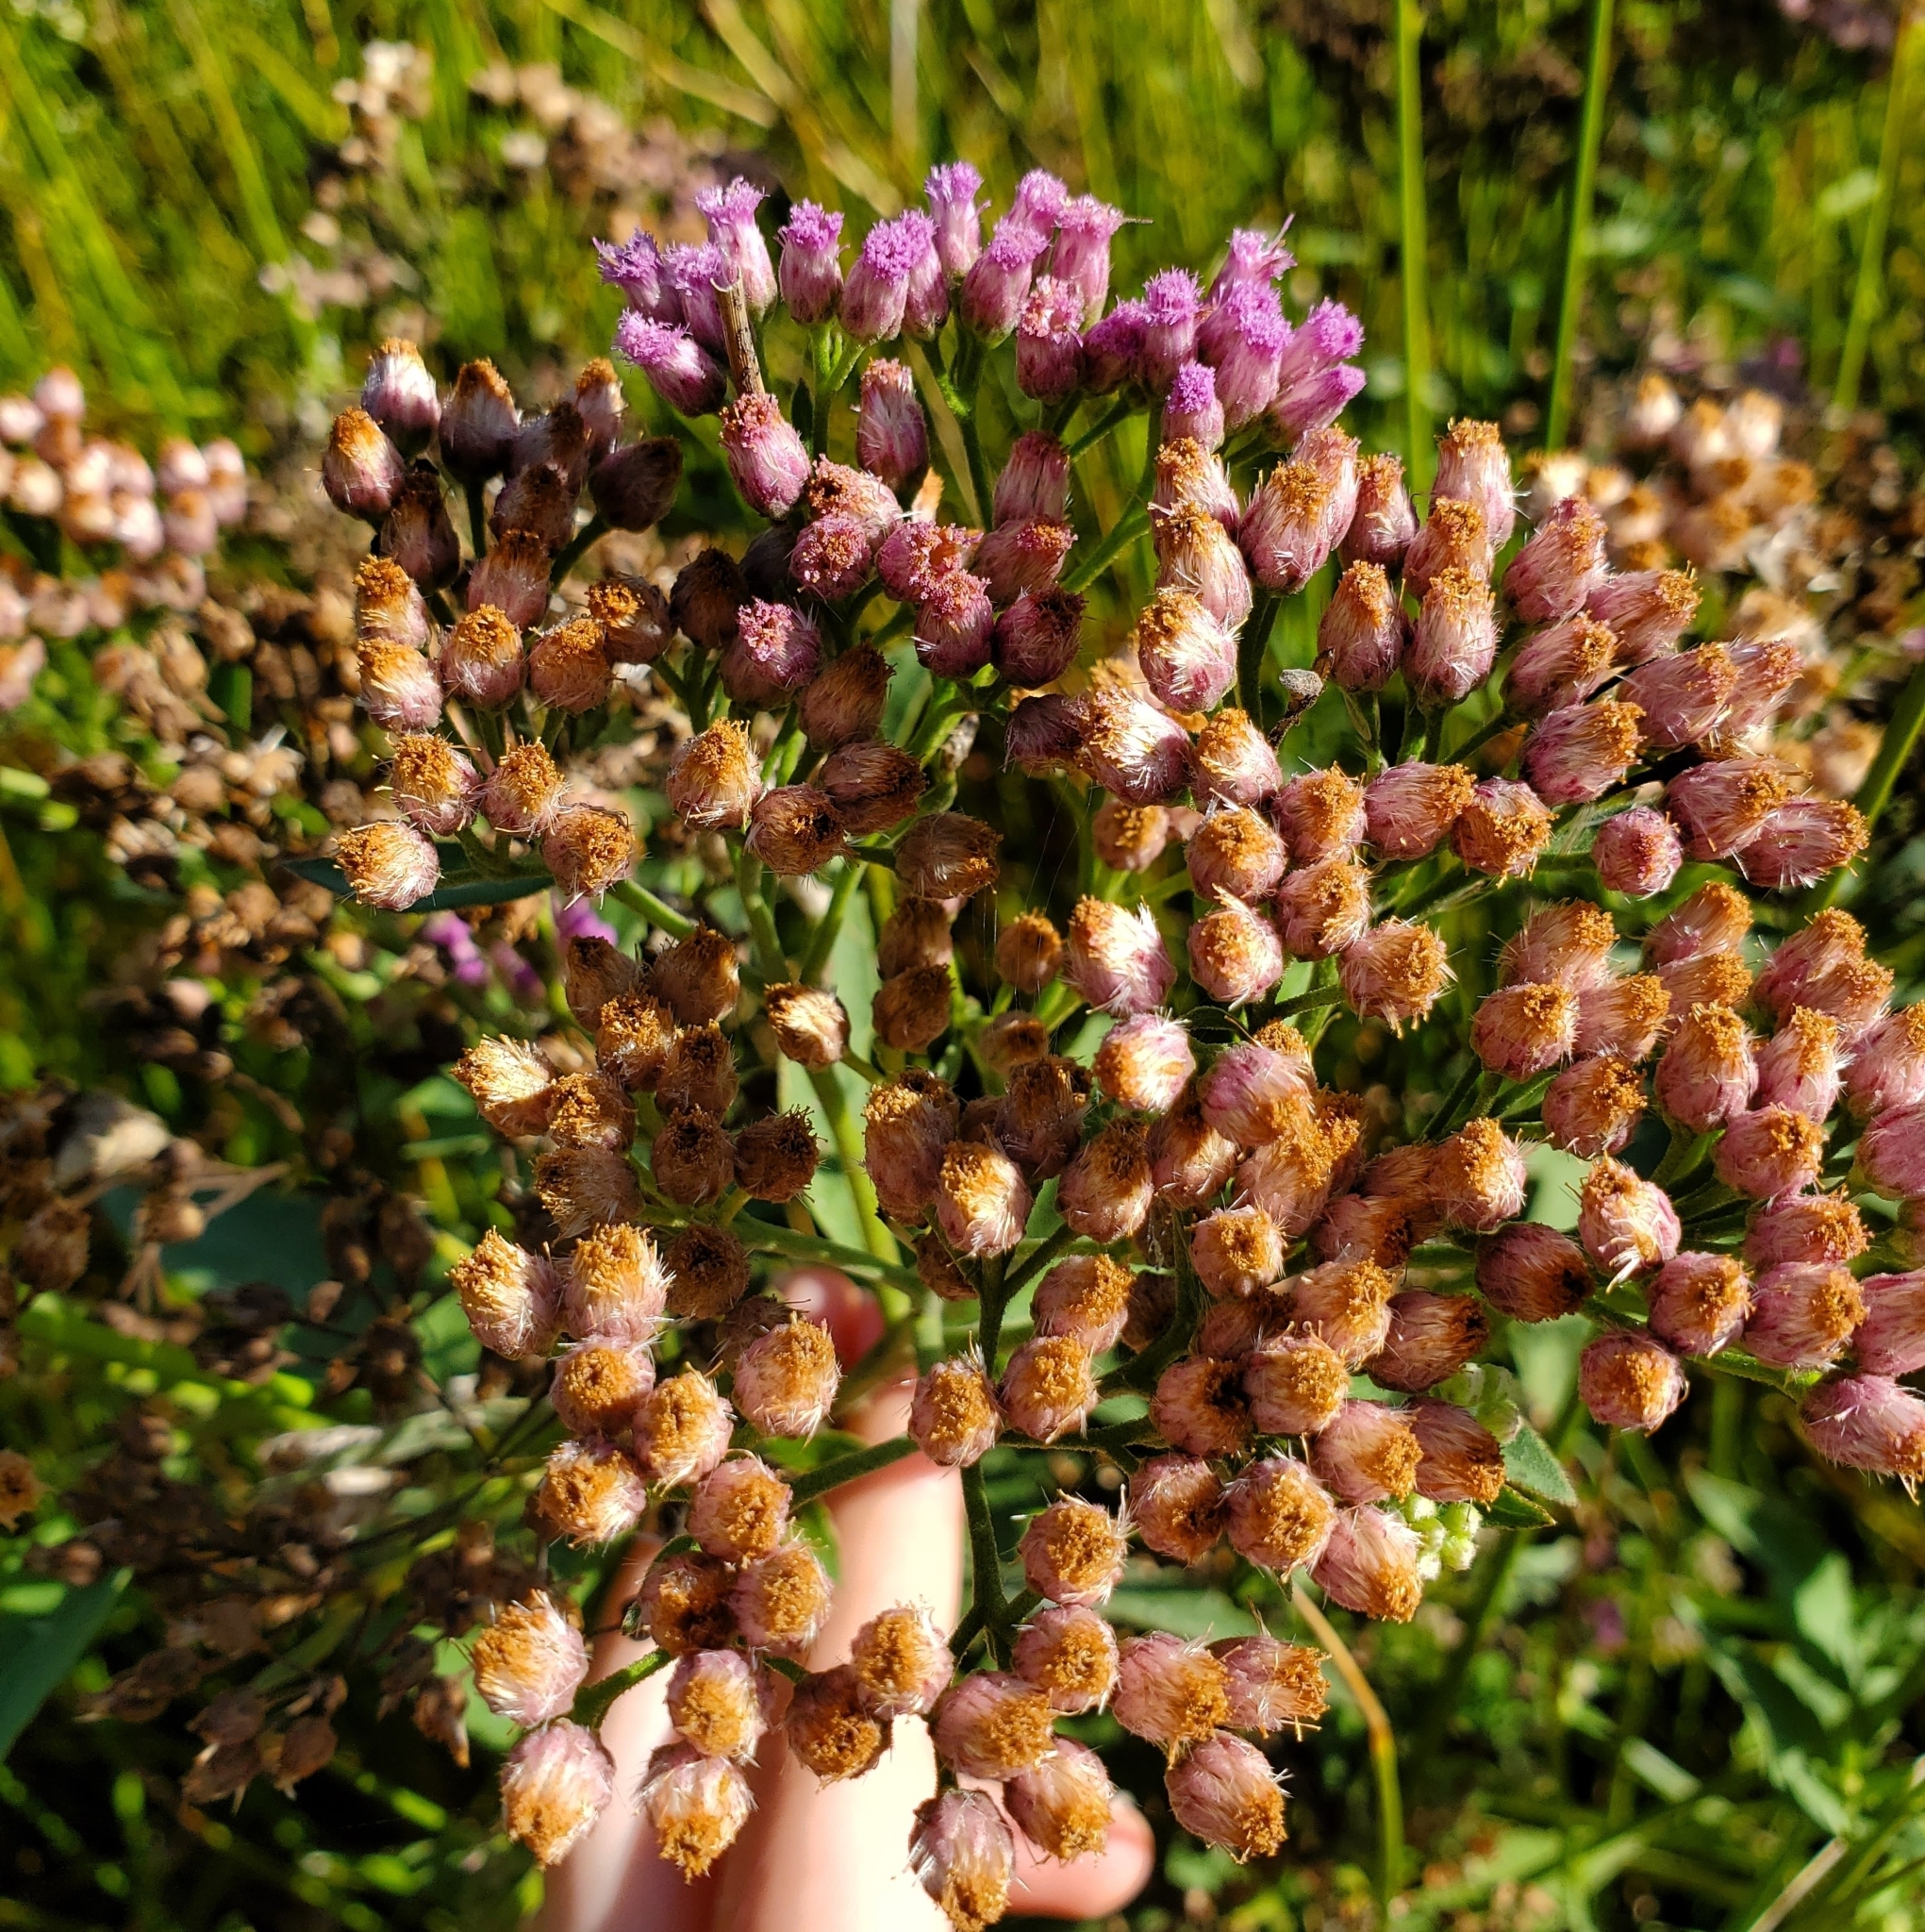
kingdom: Plantae
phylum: Tracheophyta
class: Magnoliopsida
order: Asterales
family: Asteraceae
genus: Pluchea
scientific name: Pluchea odorata
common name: Saltmarsh fleabane
